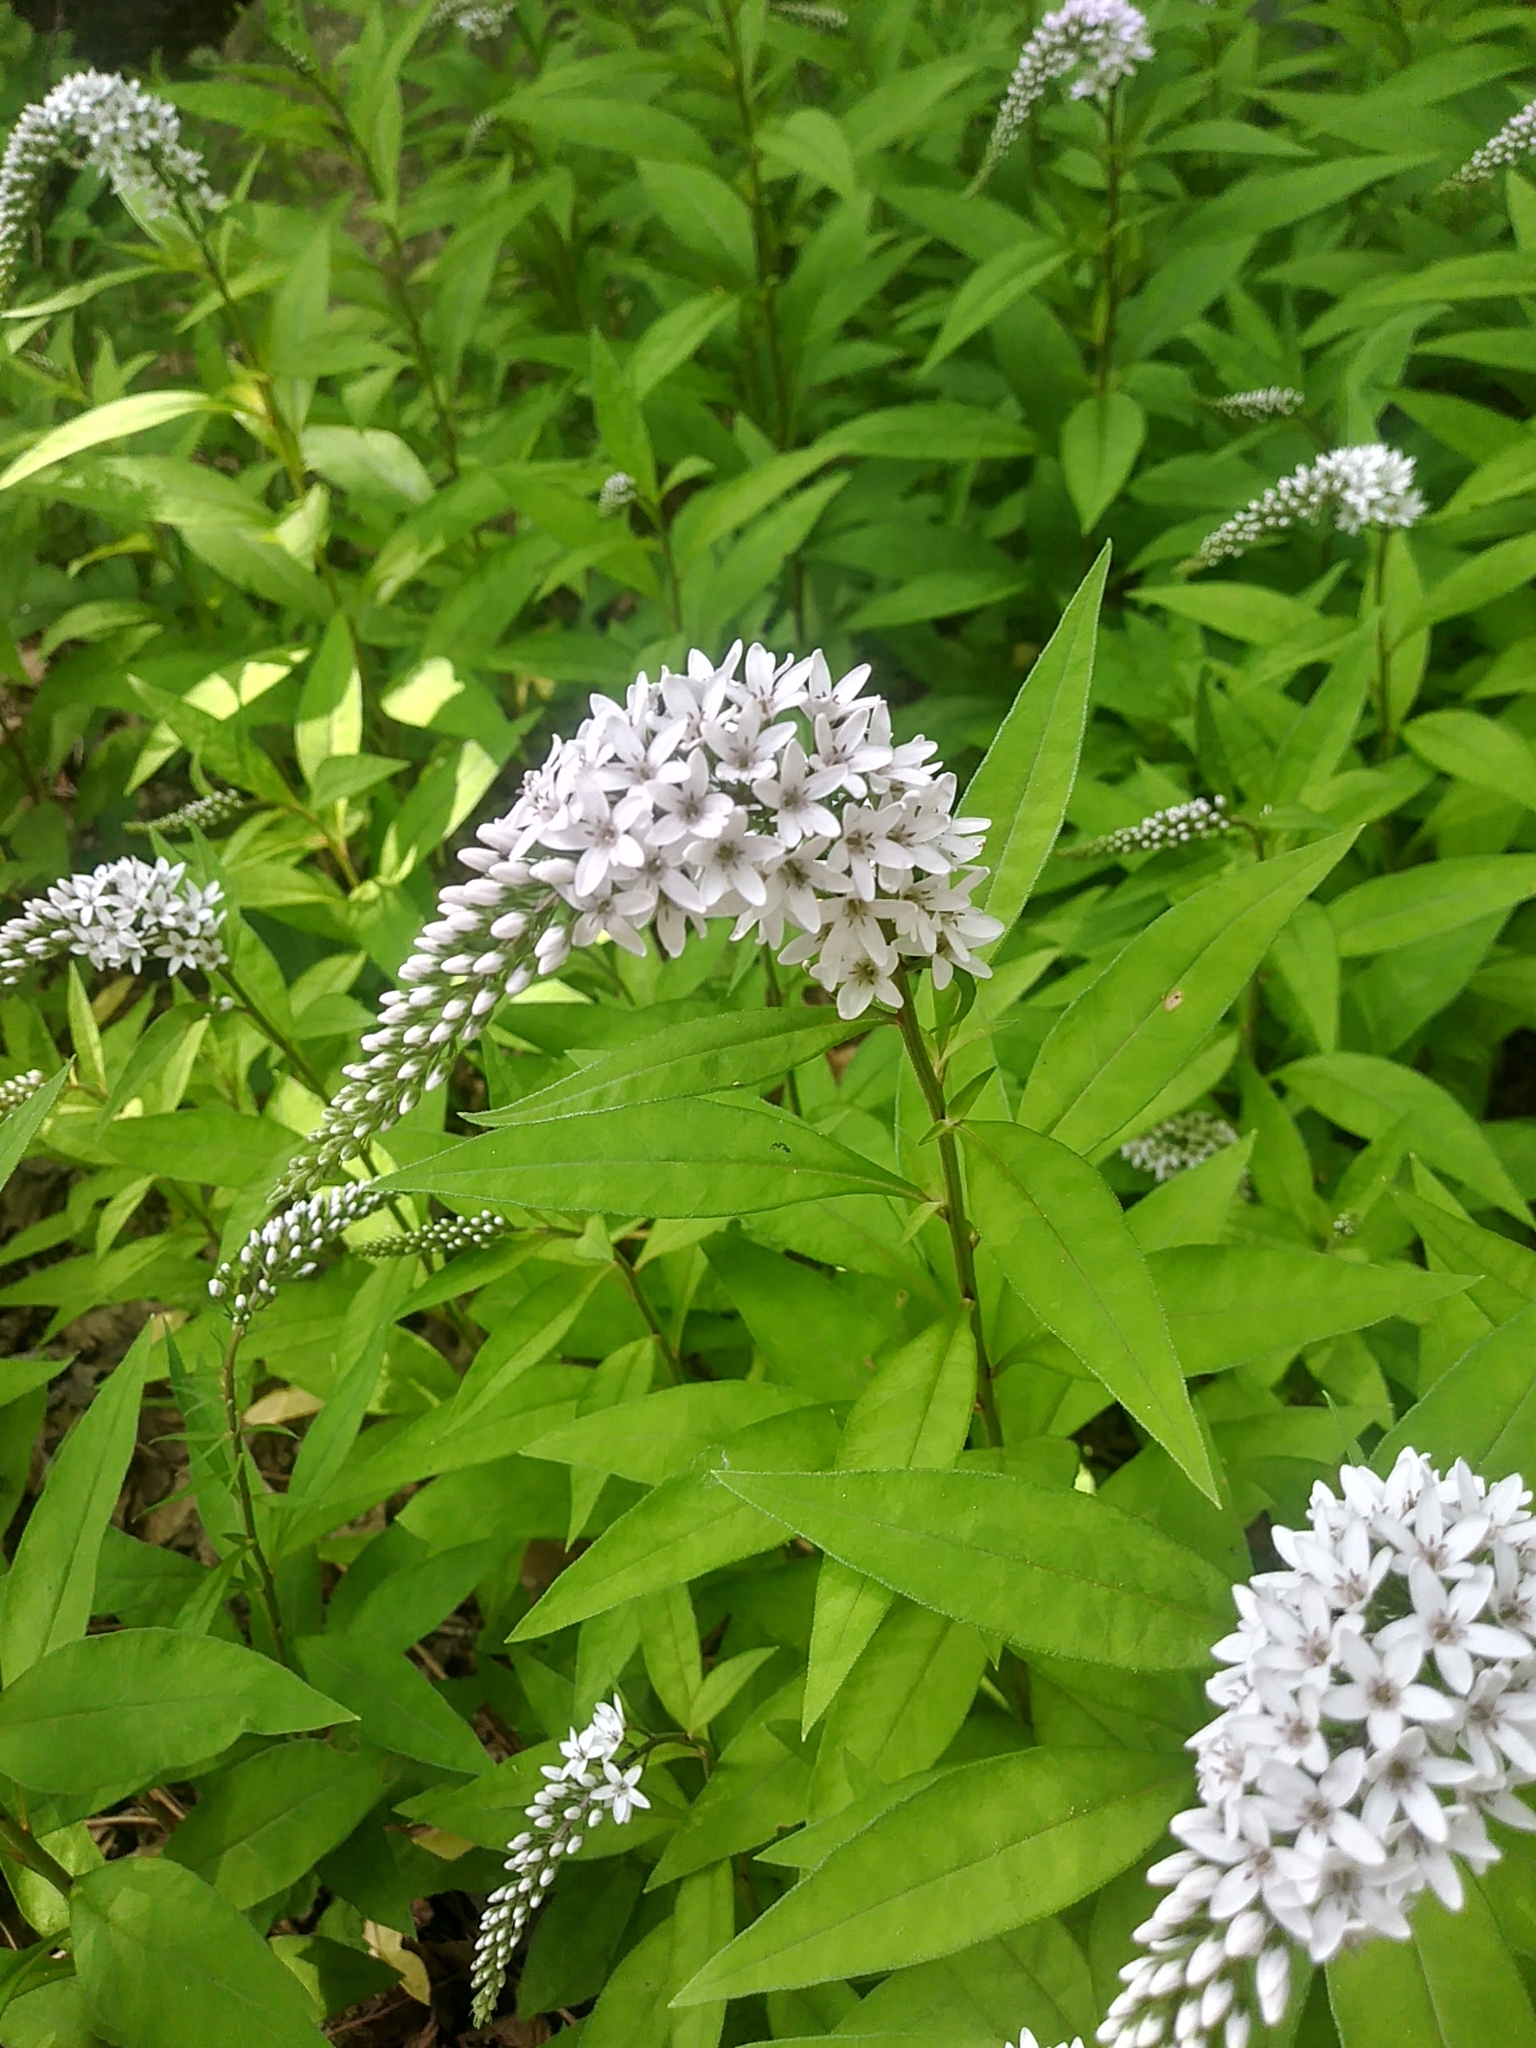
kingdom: Plantae
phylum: Tracheophyta
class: Magnoliopsida
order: Ericales
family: Primulaceae
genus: Lysimachia
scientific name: Lysimachia clethroides
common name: Gooseneck loosestrife
